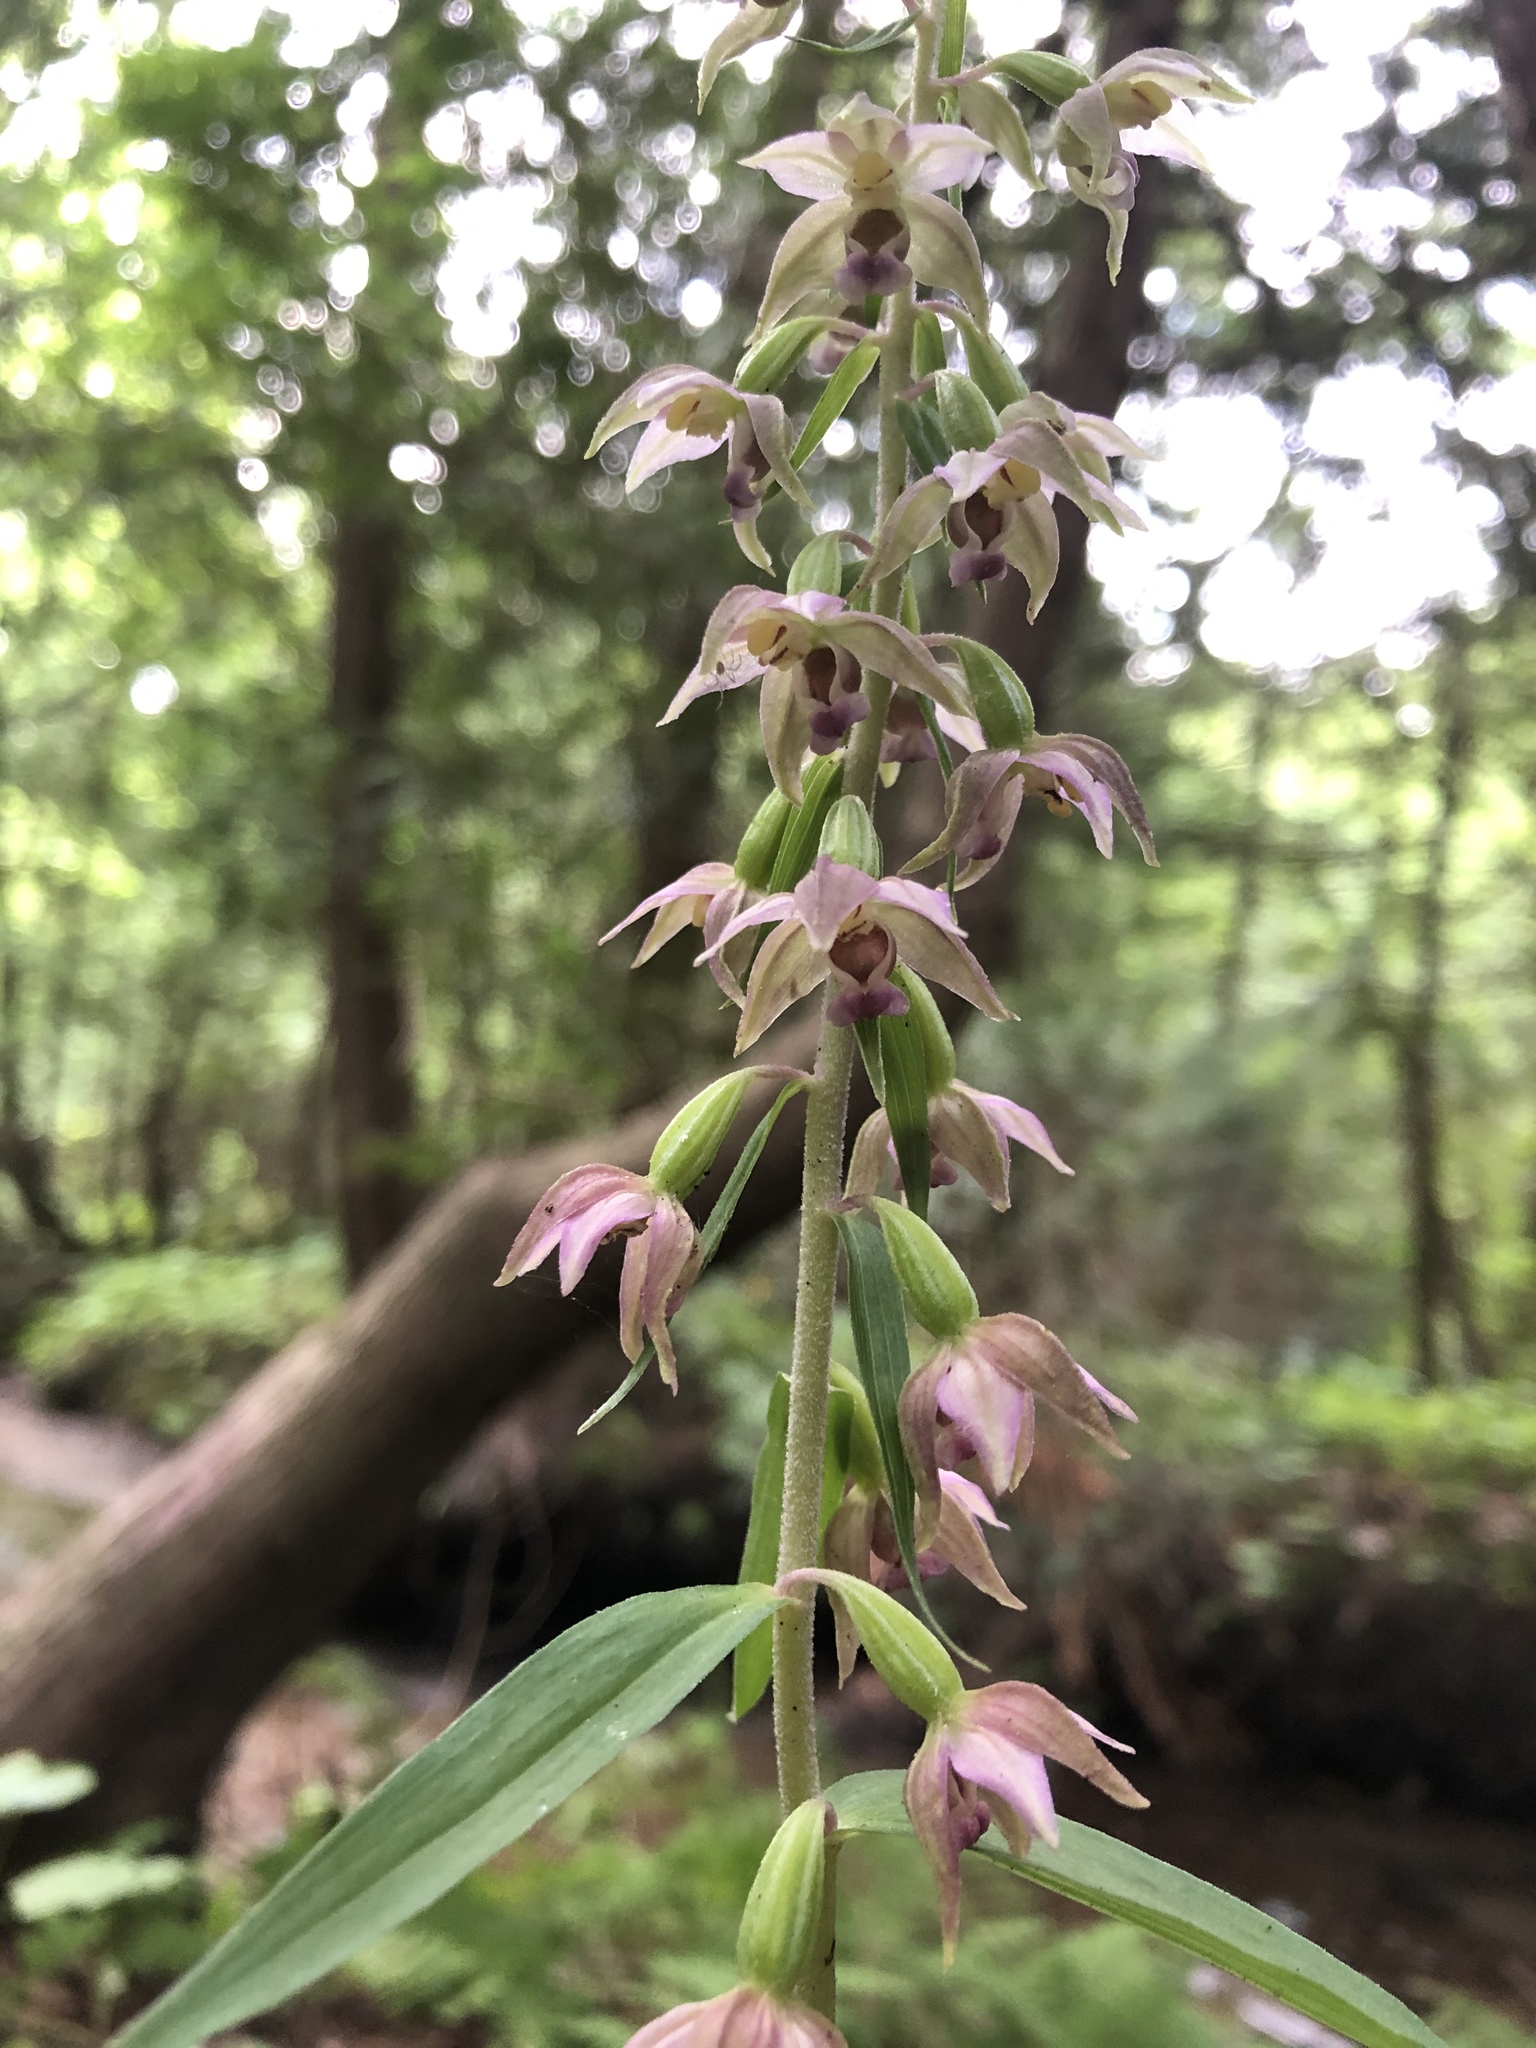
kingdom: Plantae
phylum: Tracheophyta
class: Liliopsida
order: Asparagales
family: Orchidaceae
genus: Epipactis
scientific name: Epipactis helleborine
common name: Broad-leaved helleborine
